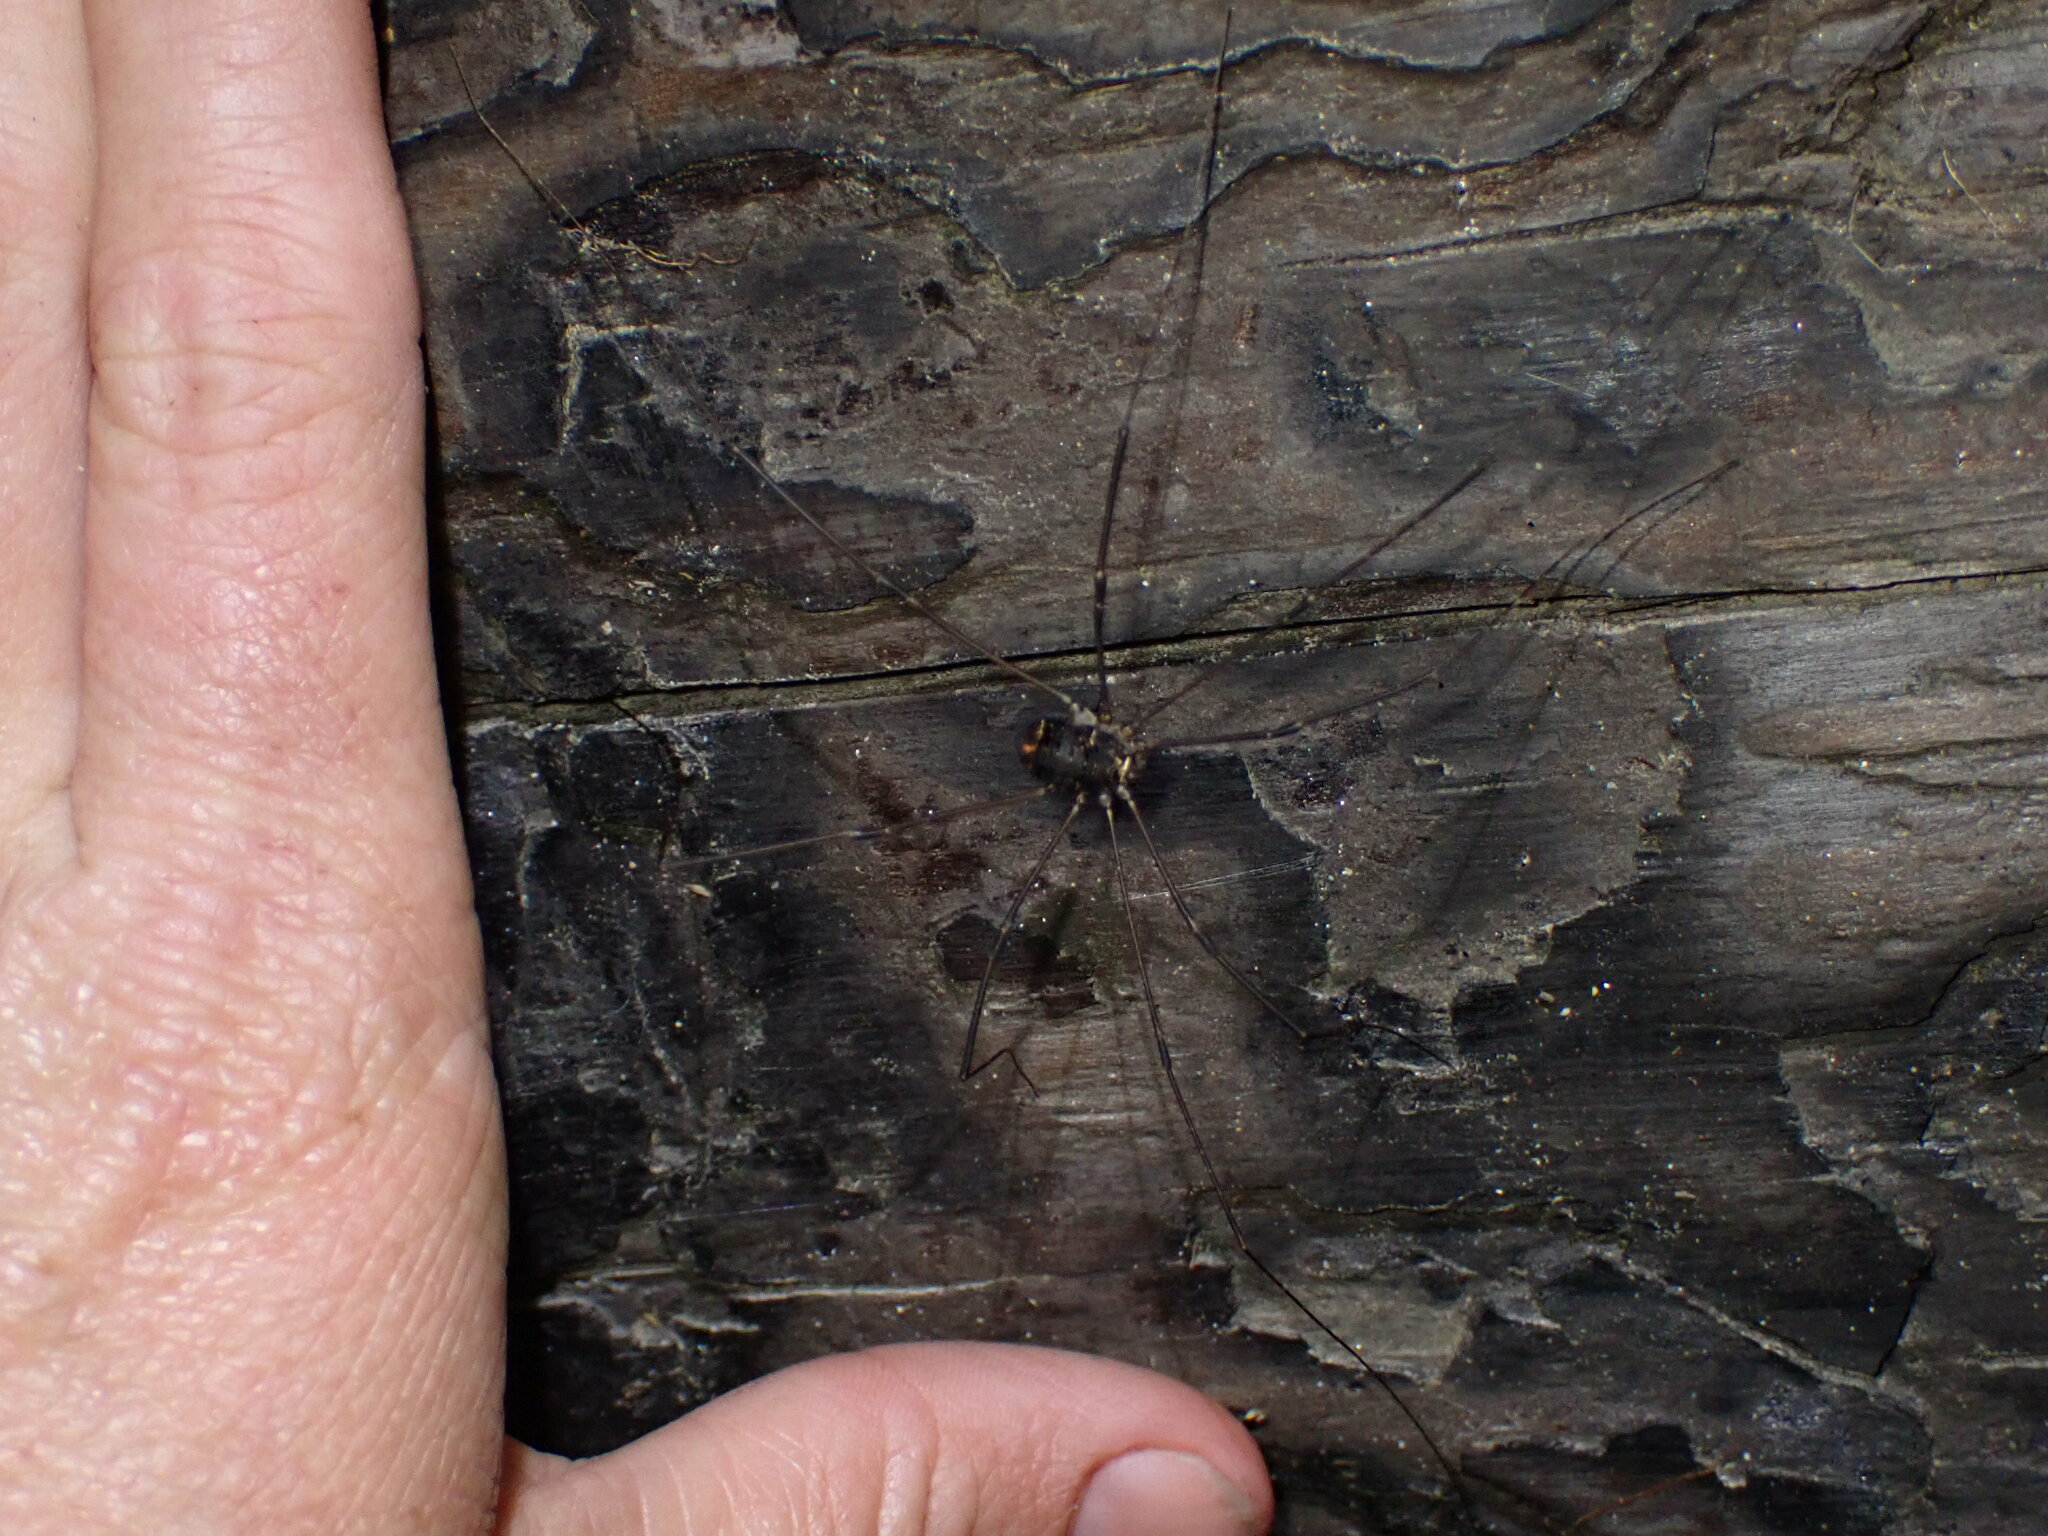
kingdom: Animalia
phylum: Arthropoda
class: Arachnida
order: Opiliones
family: Sclerosomatidae
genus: Leiobunum
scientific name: Leiobunum exilipes
